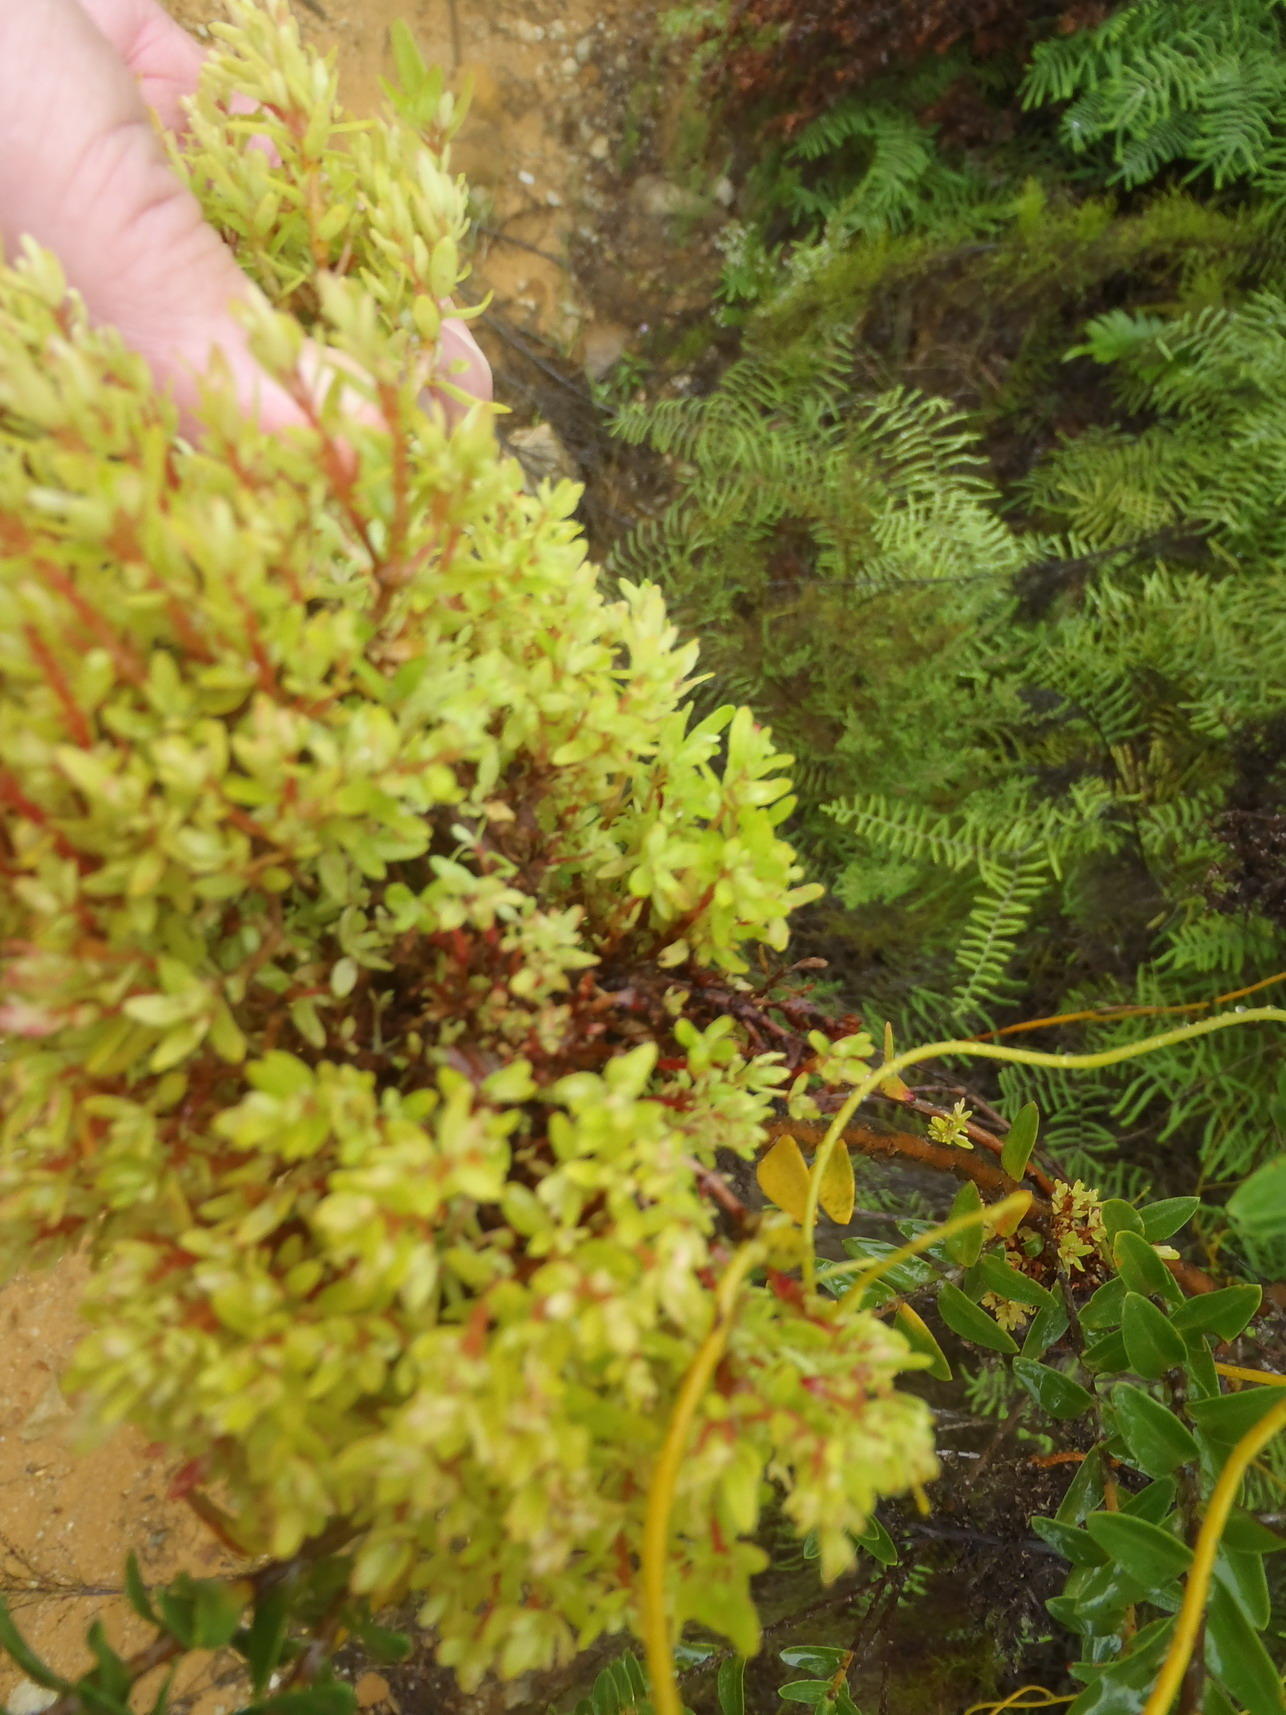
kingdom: Bacteria
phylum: Firmicutes
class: Bacilli
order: Acholeplasmatales
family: Acholeplasmataceae
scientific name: Acholeplasmataceae
